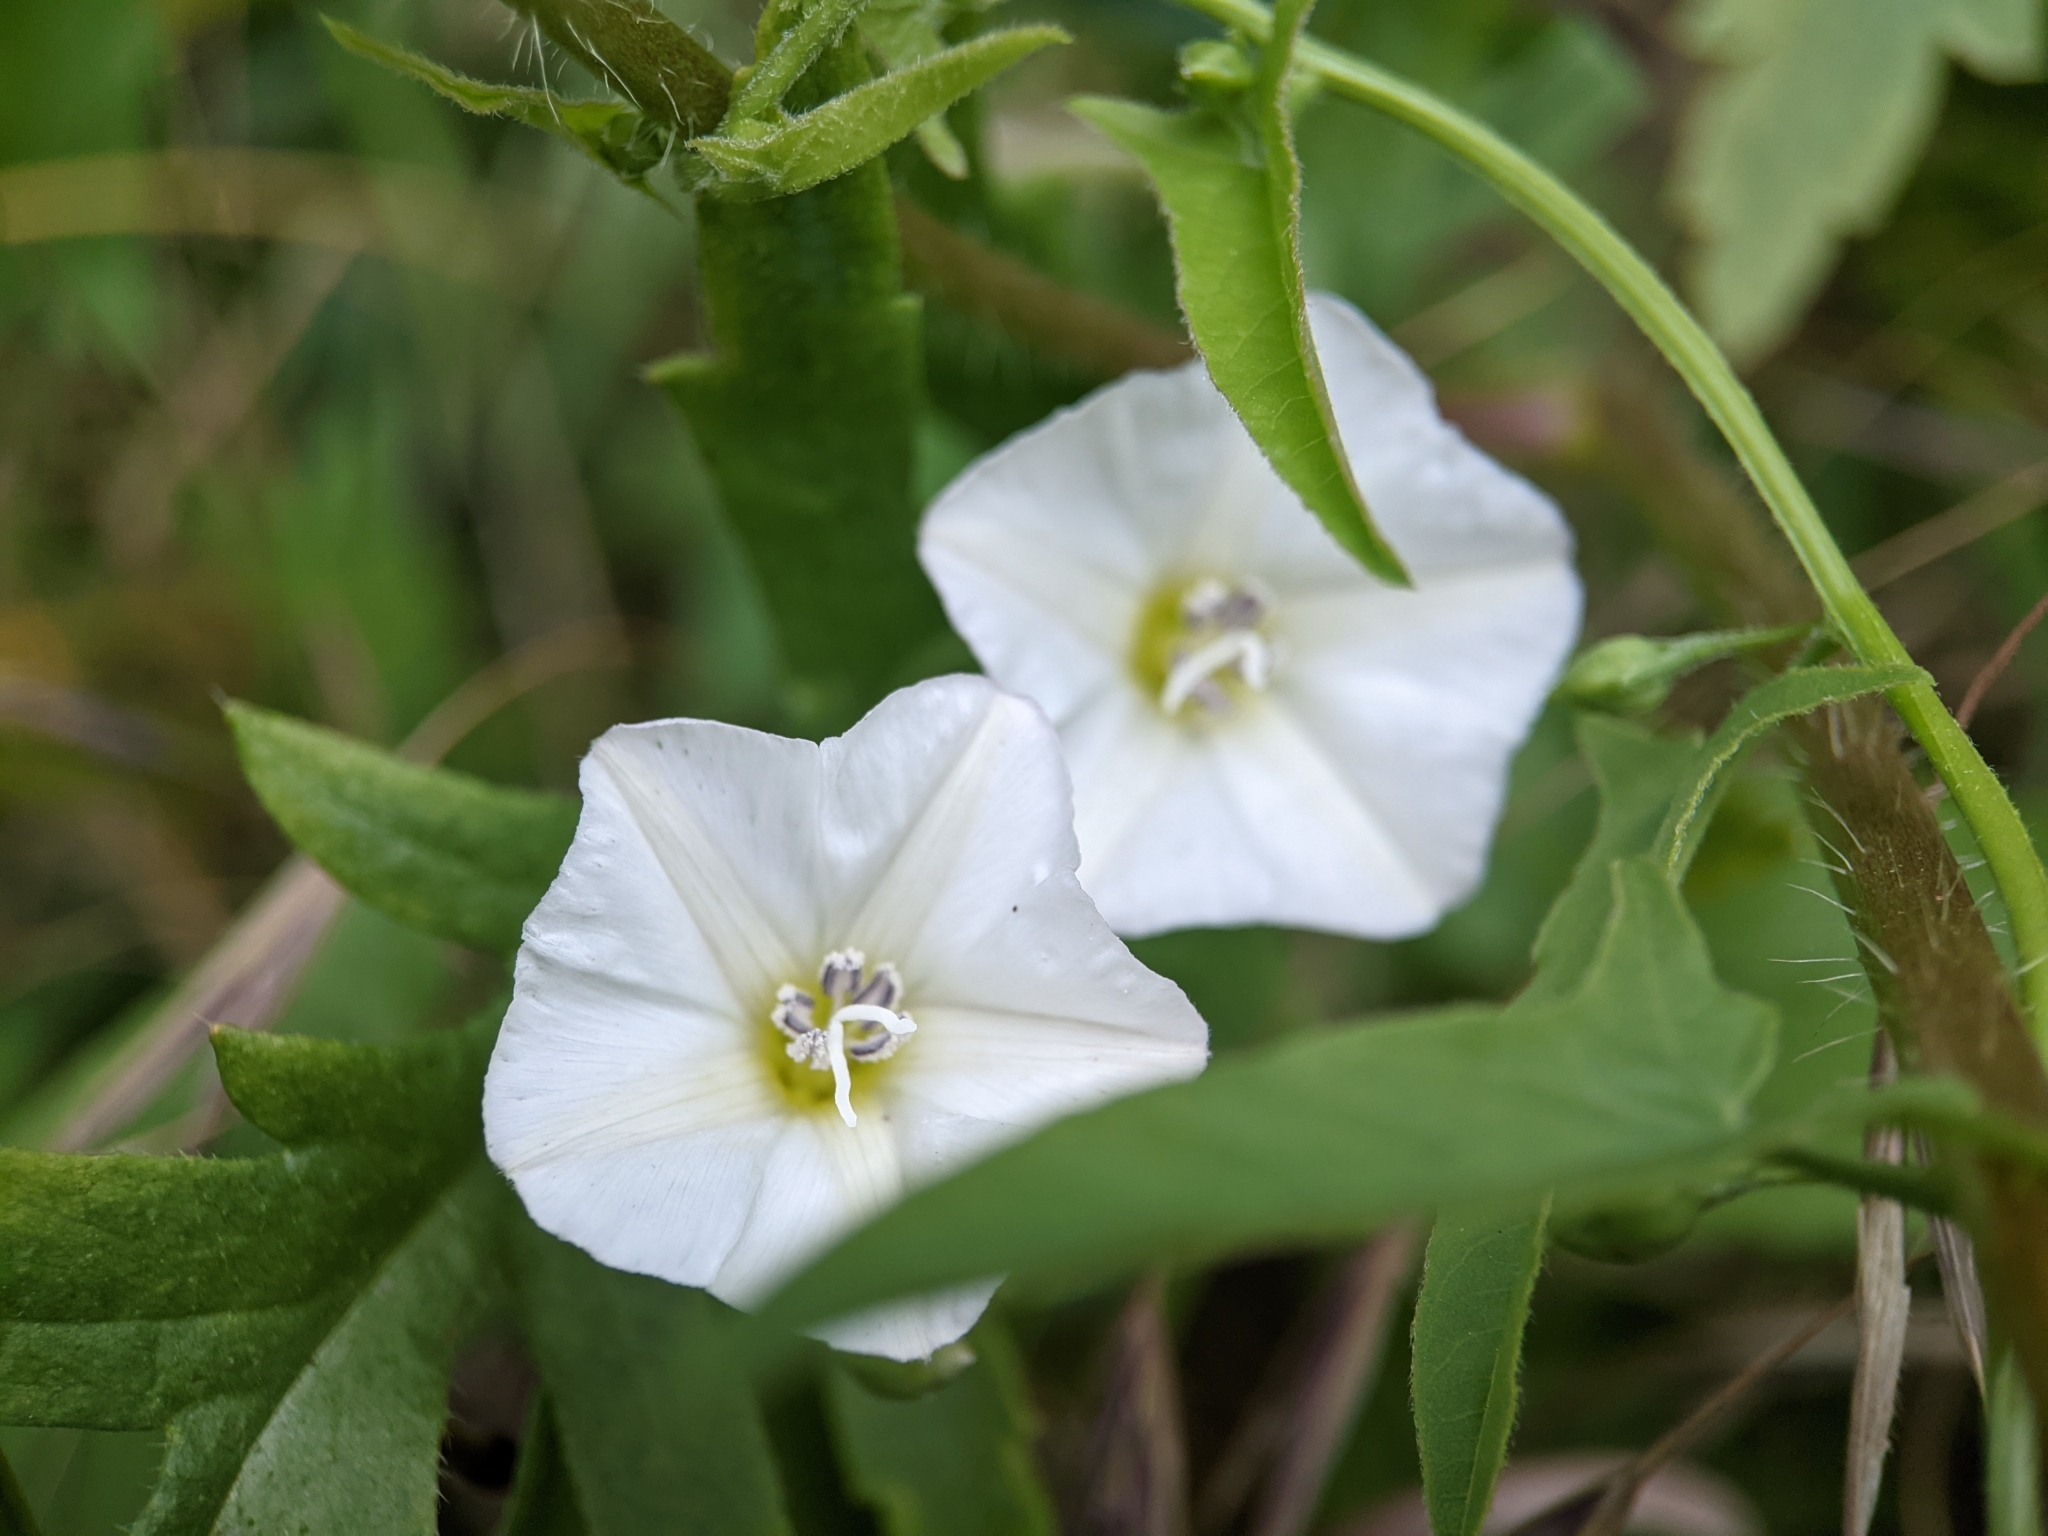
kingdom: Plantae
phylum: Tracheophyta
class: Magnoliopsida
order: Solanales
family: Convolvulaceae
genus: Convolvulus
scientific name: Convolvulus arvensis
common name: Field bindweed
